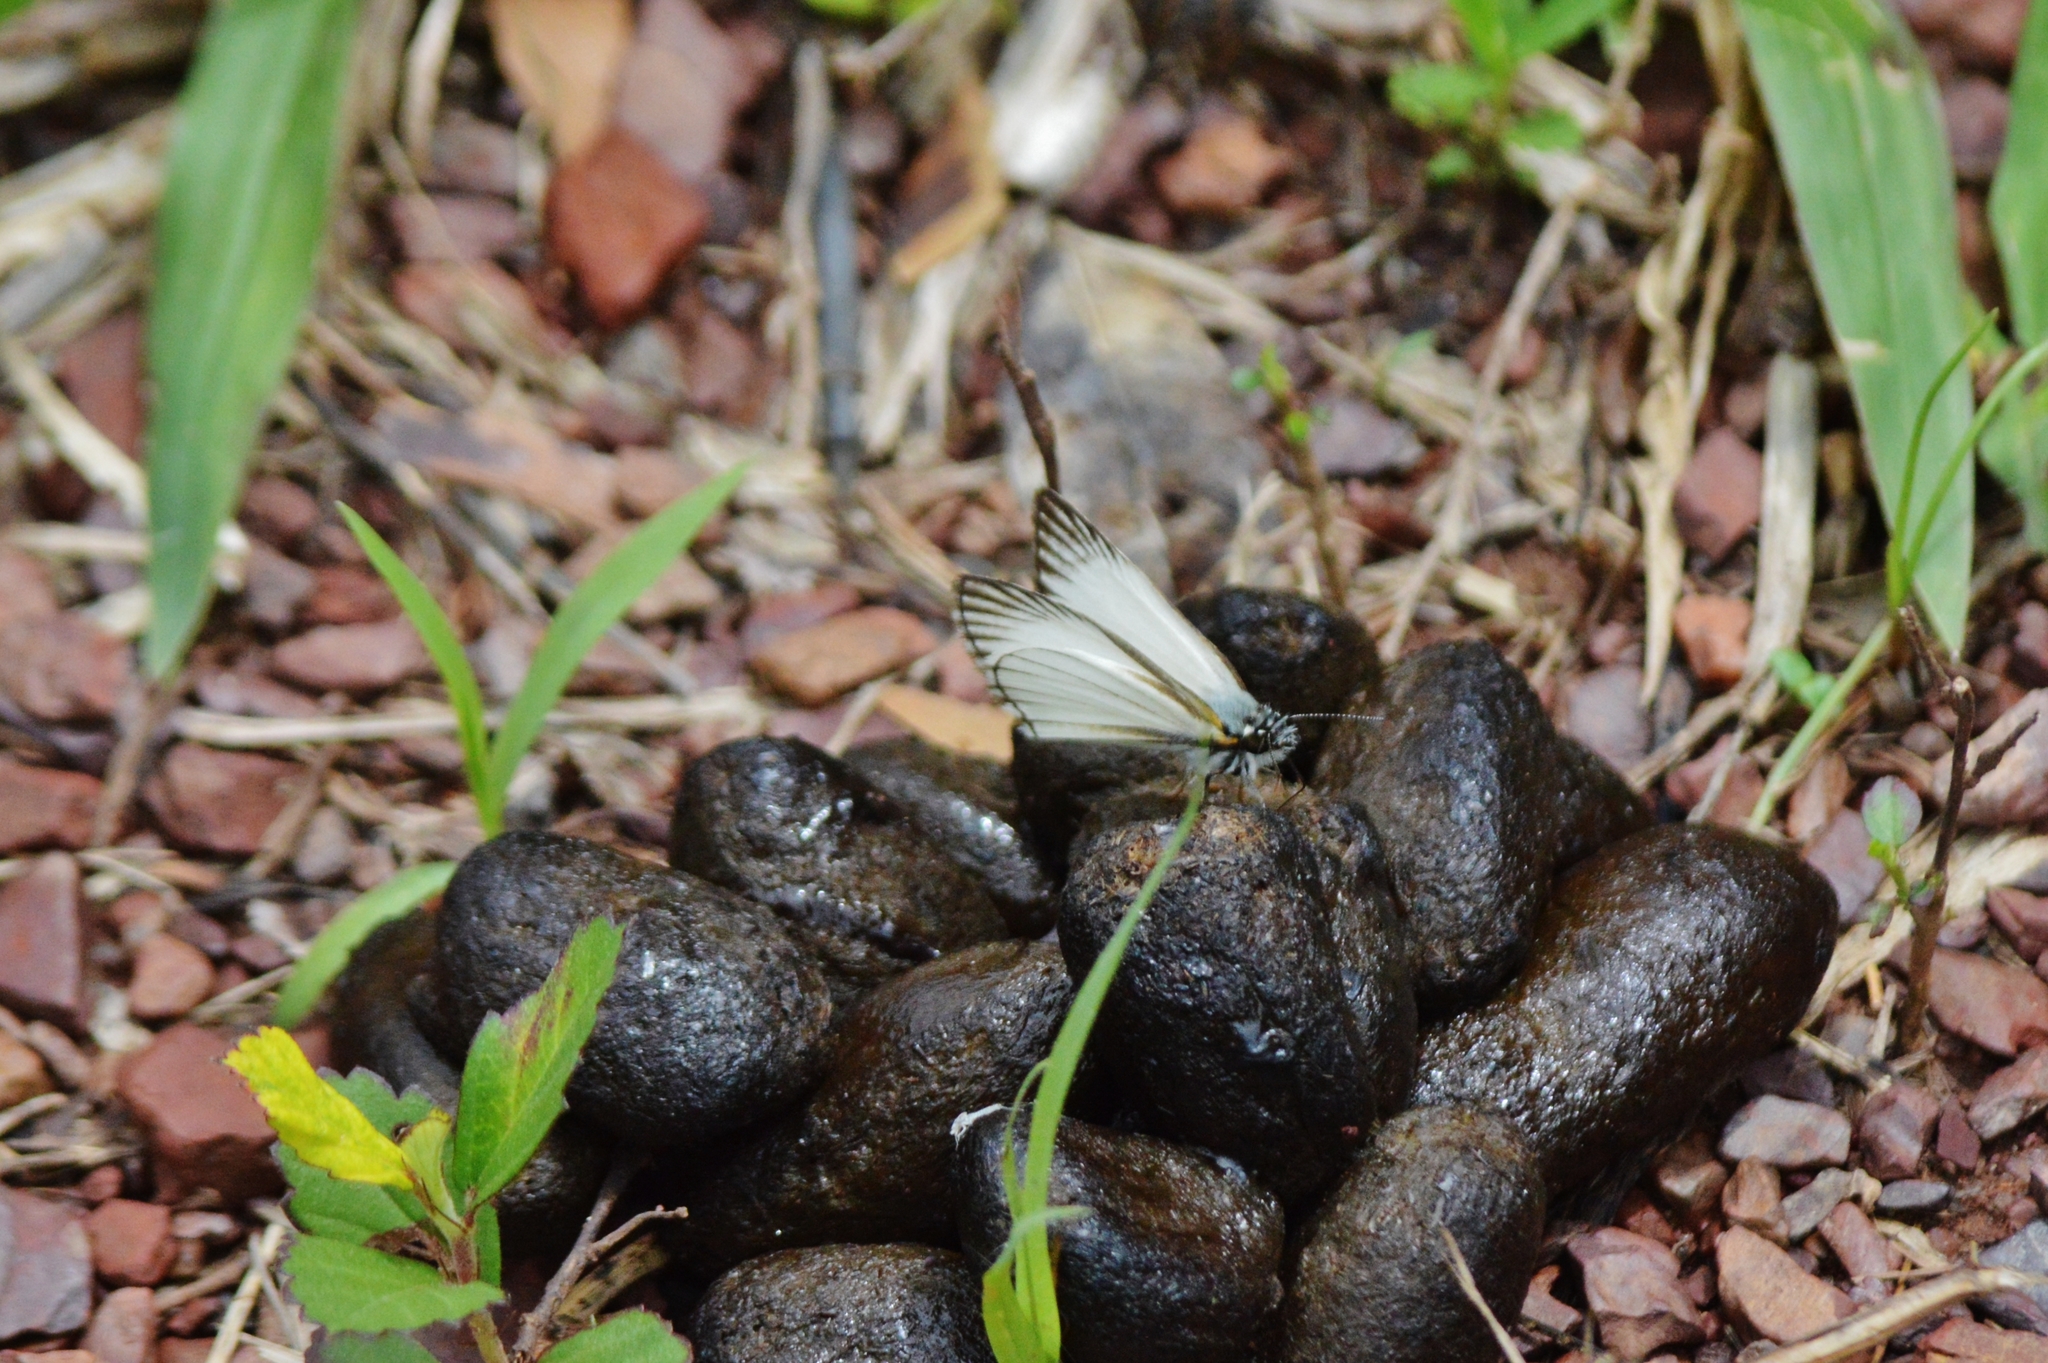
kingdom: Animalia
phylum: Arthropoda
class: Insecta
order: Lepidoptera
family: Hesperiidae
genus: Heliopetes
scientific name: Heliopetes arsalte
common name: Veined white-skipper
